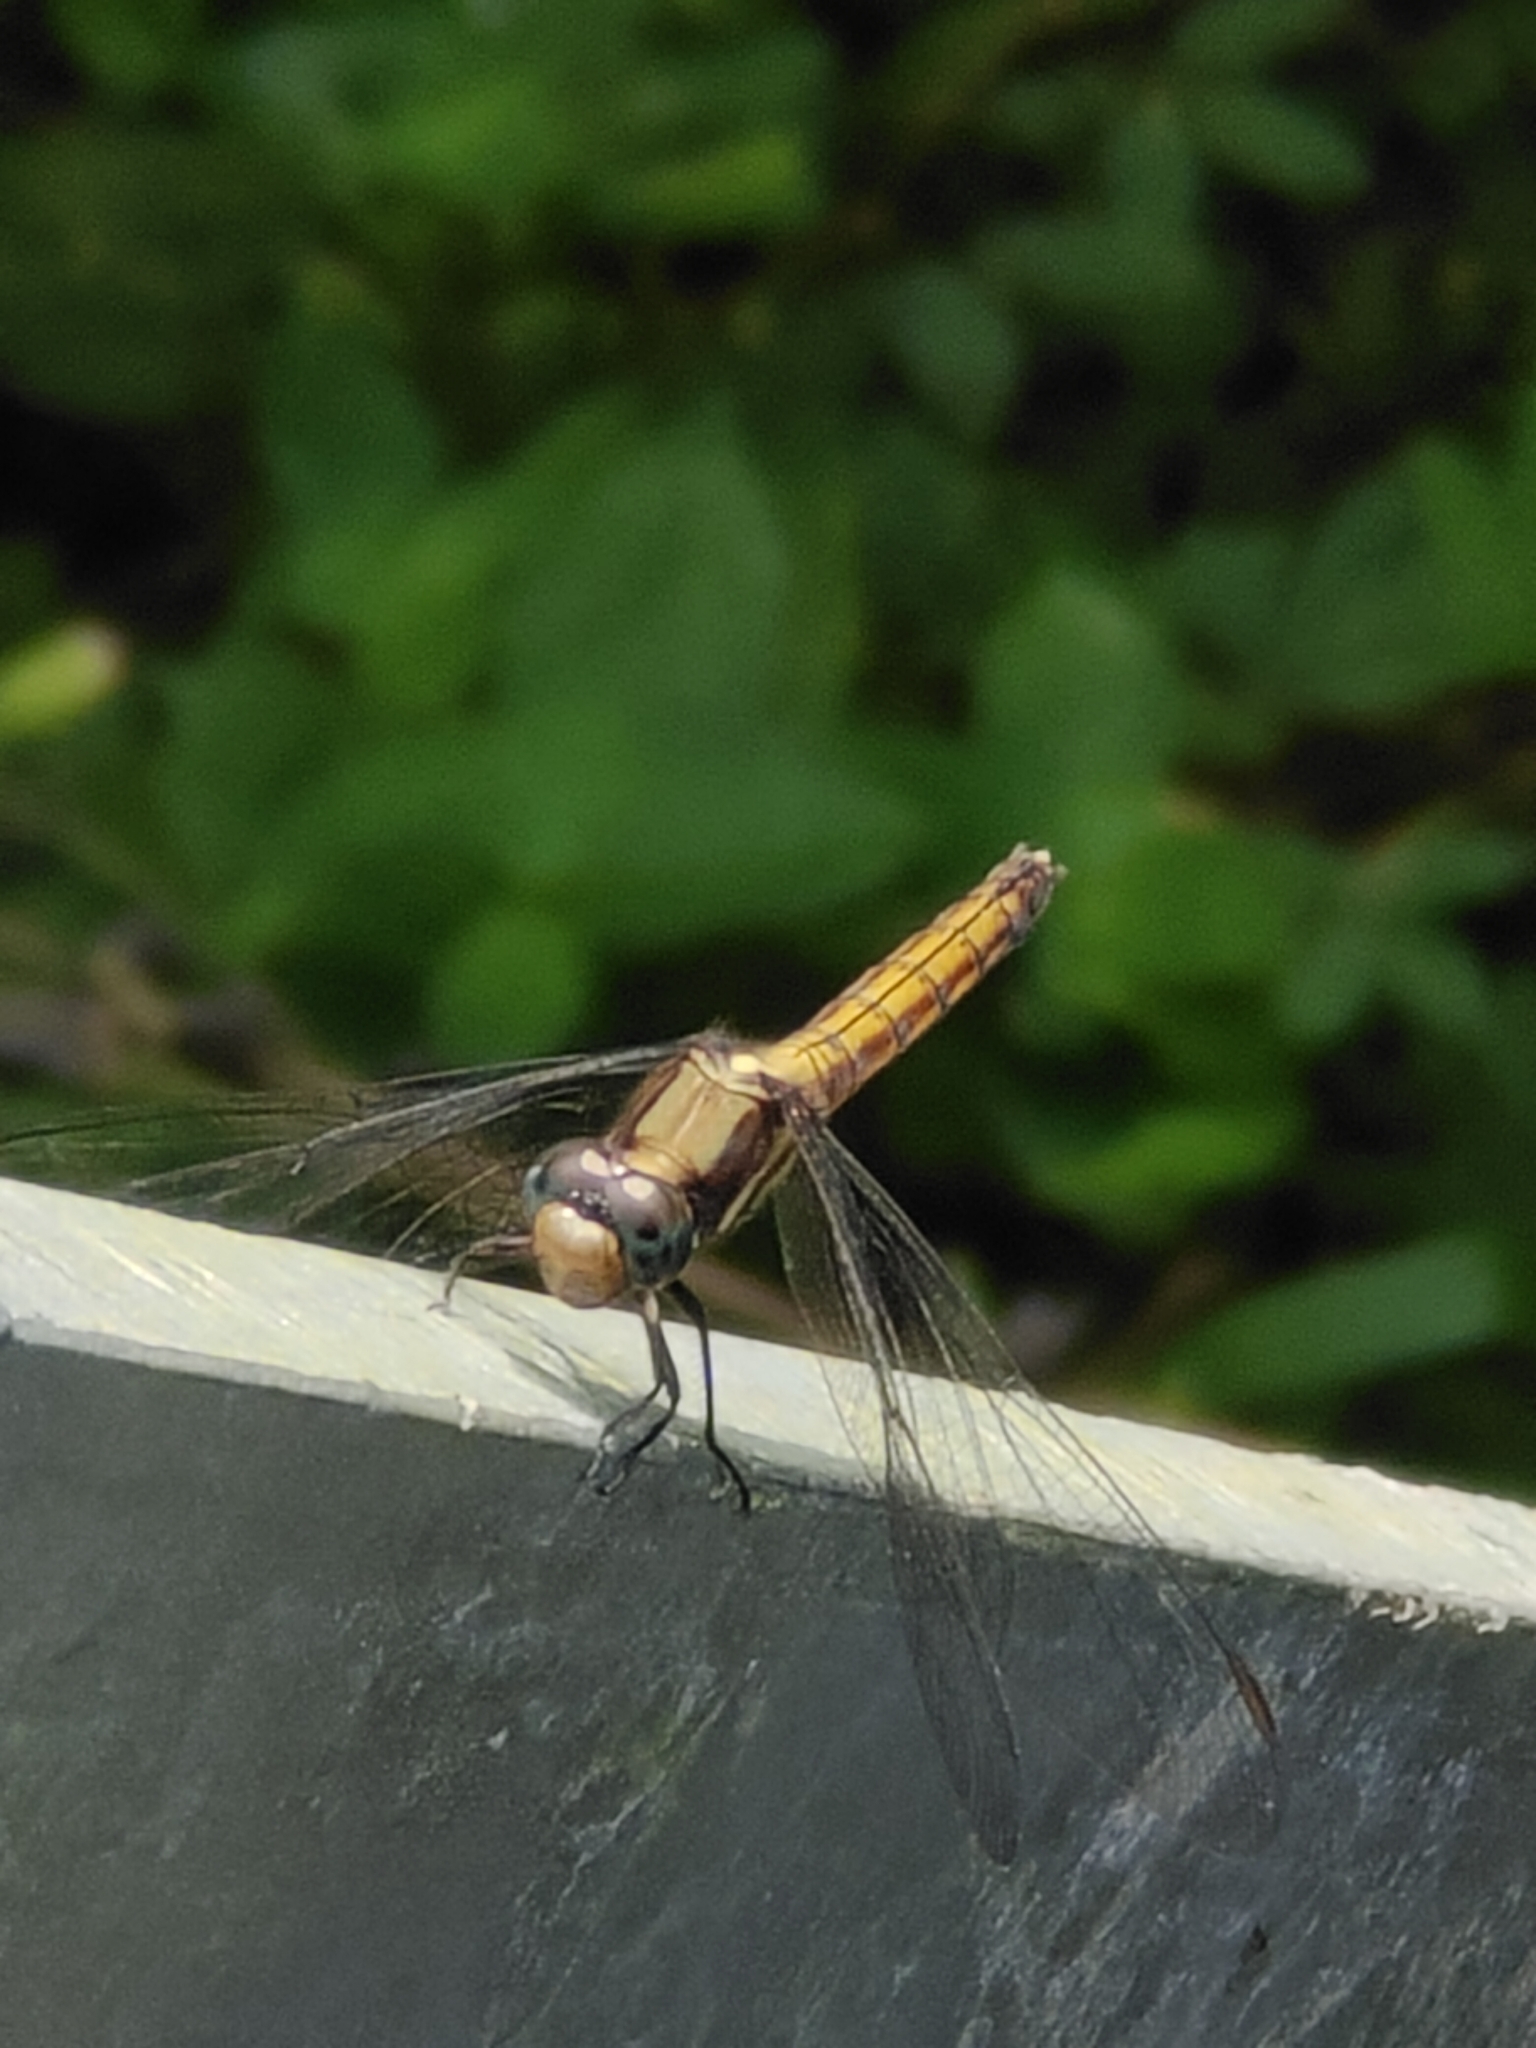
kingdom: Animalia
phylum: Arthropoda
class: Insecta
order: Odonata
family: Libellulidae
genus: Orthetrum
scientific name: Orthetrum glaucum
